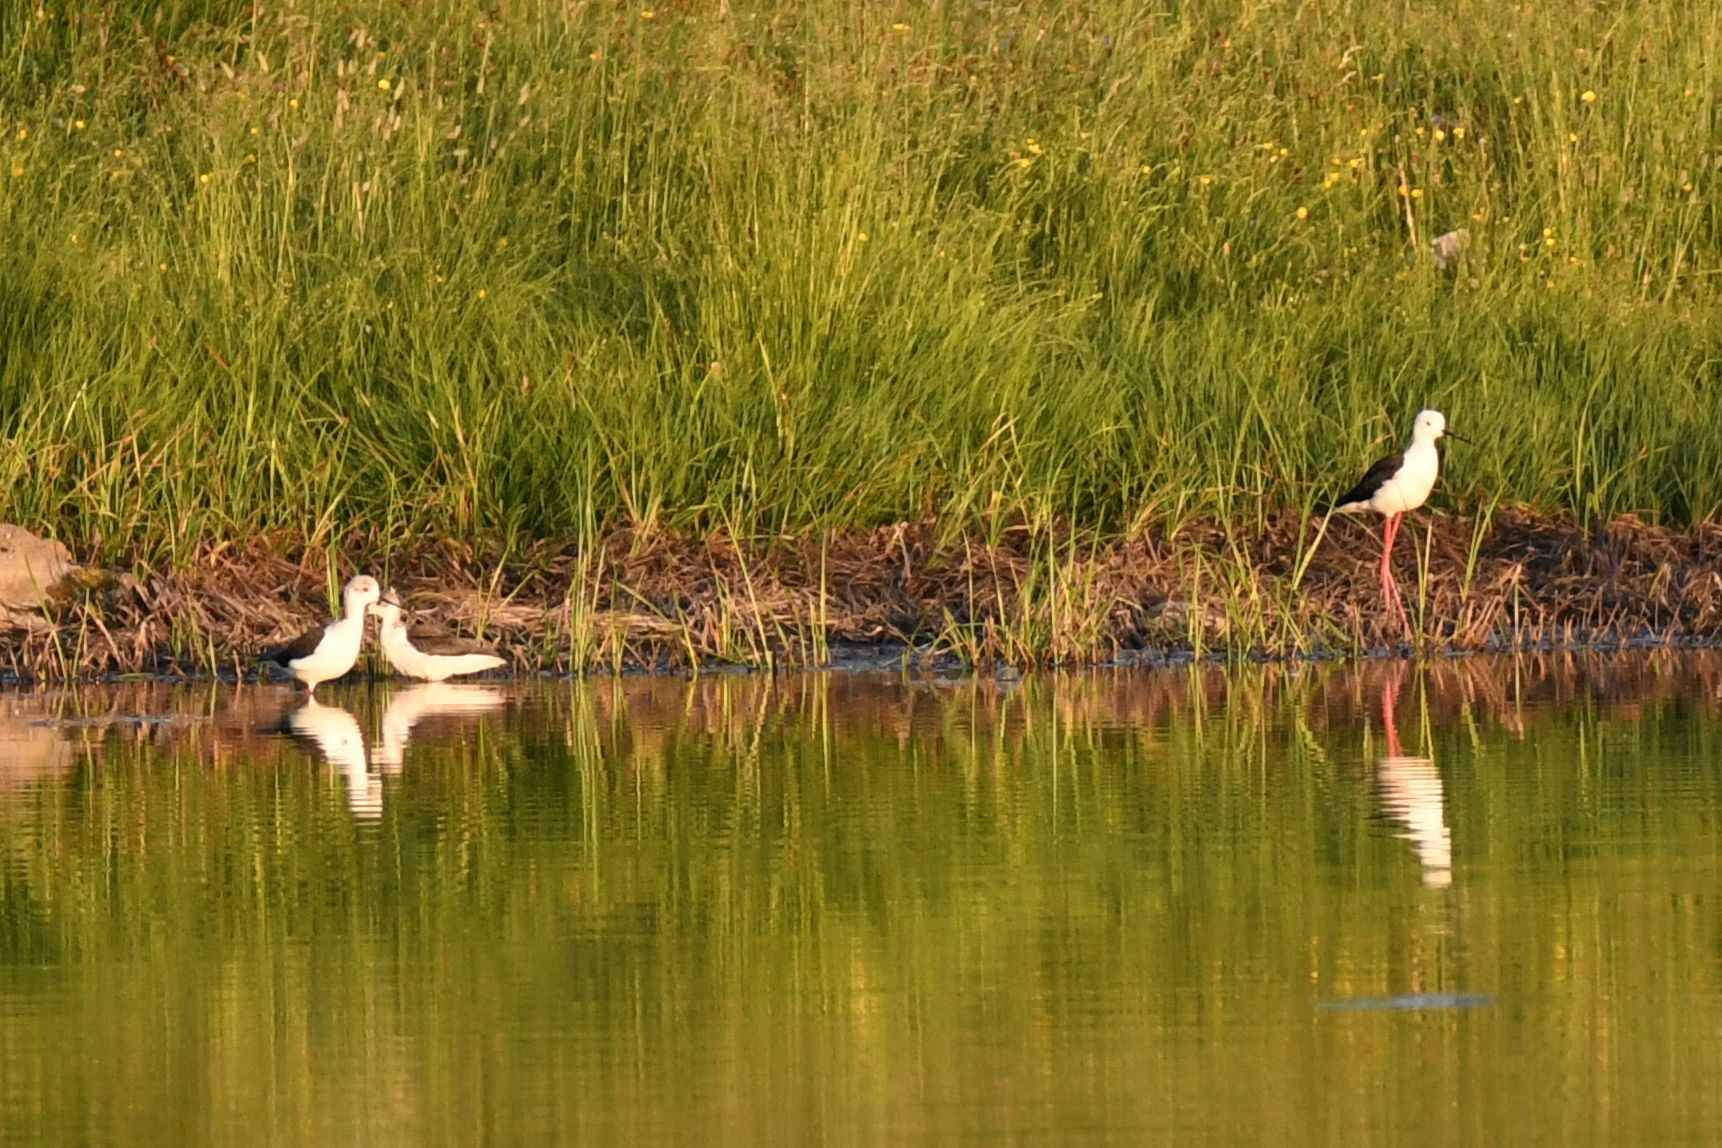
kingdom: Animalia
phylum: Chordata
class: Aves
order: Charadriiformes
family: Recurvirostridae
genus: Himantopus
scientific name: Himantopus himantopus
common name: Black-winged stilt
